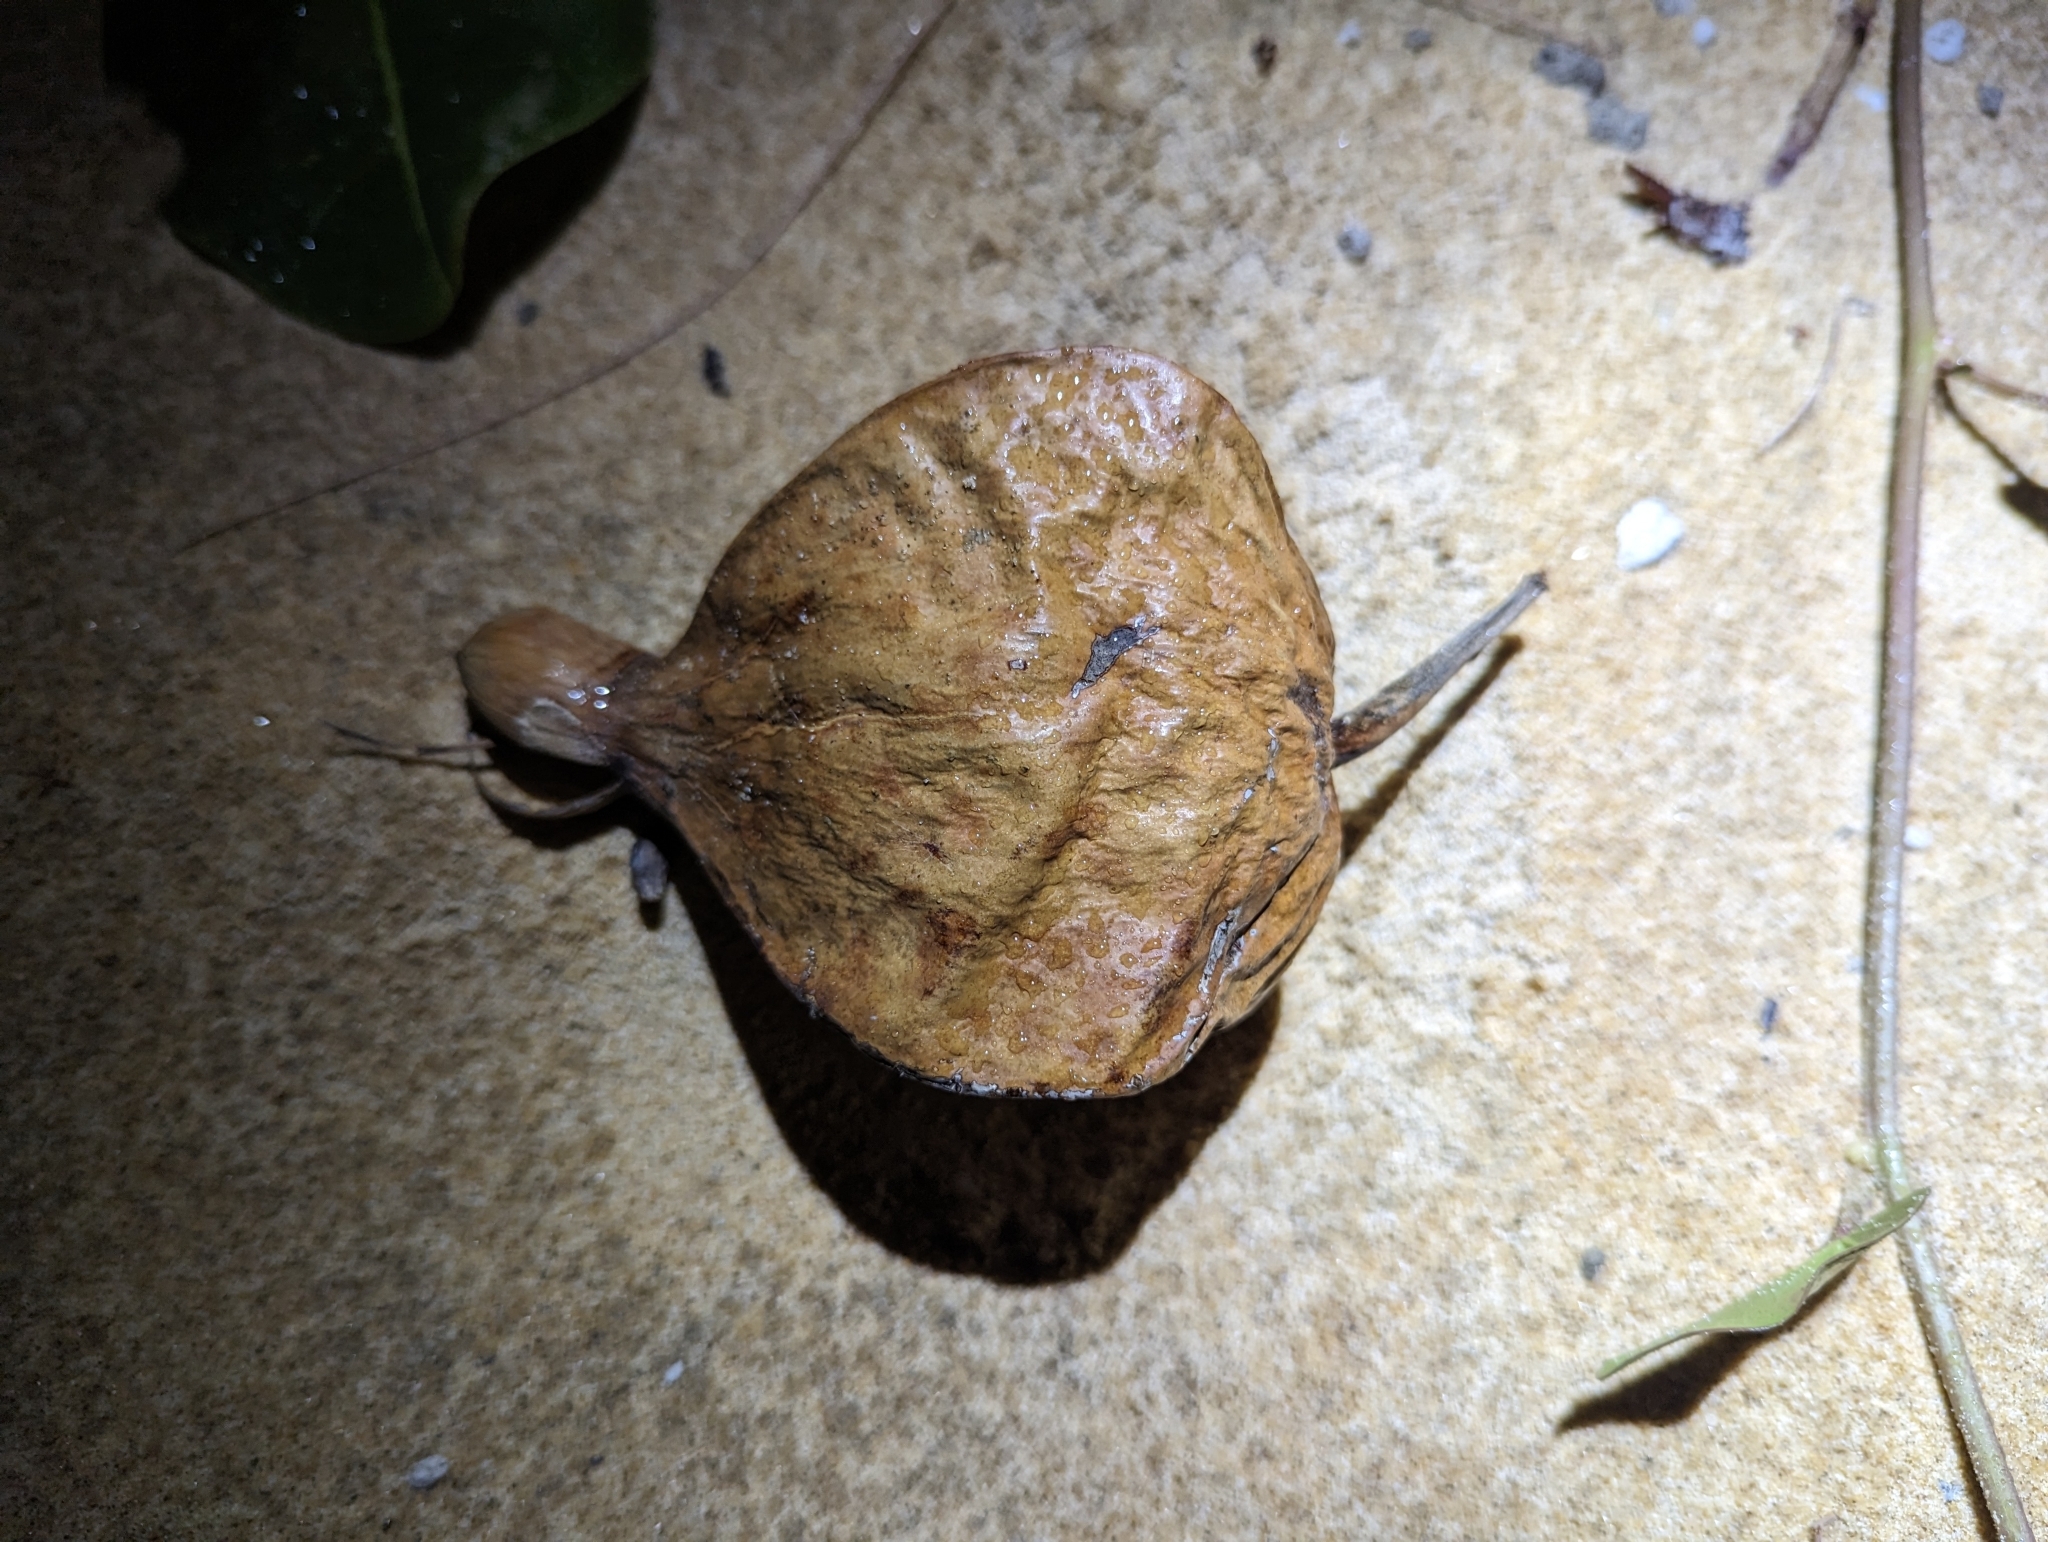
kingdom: Plantae
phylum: Tracheophyta
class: Magnoliopsida
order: Ericales
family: Lecythidaceae
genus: Barringtonia
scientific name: Barringtonia asiatica
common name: Mango-pine
